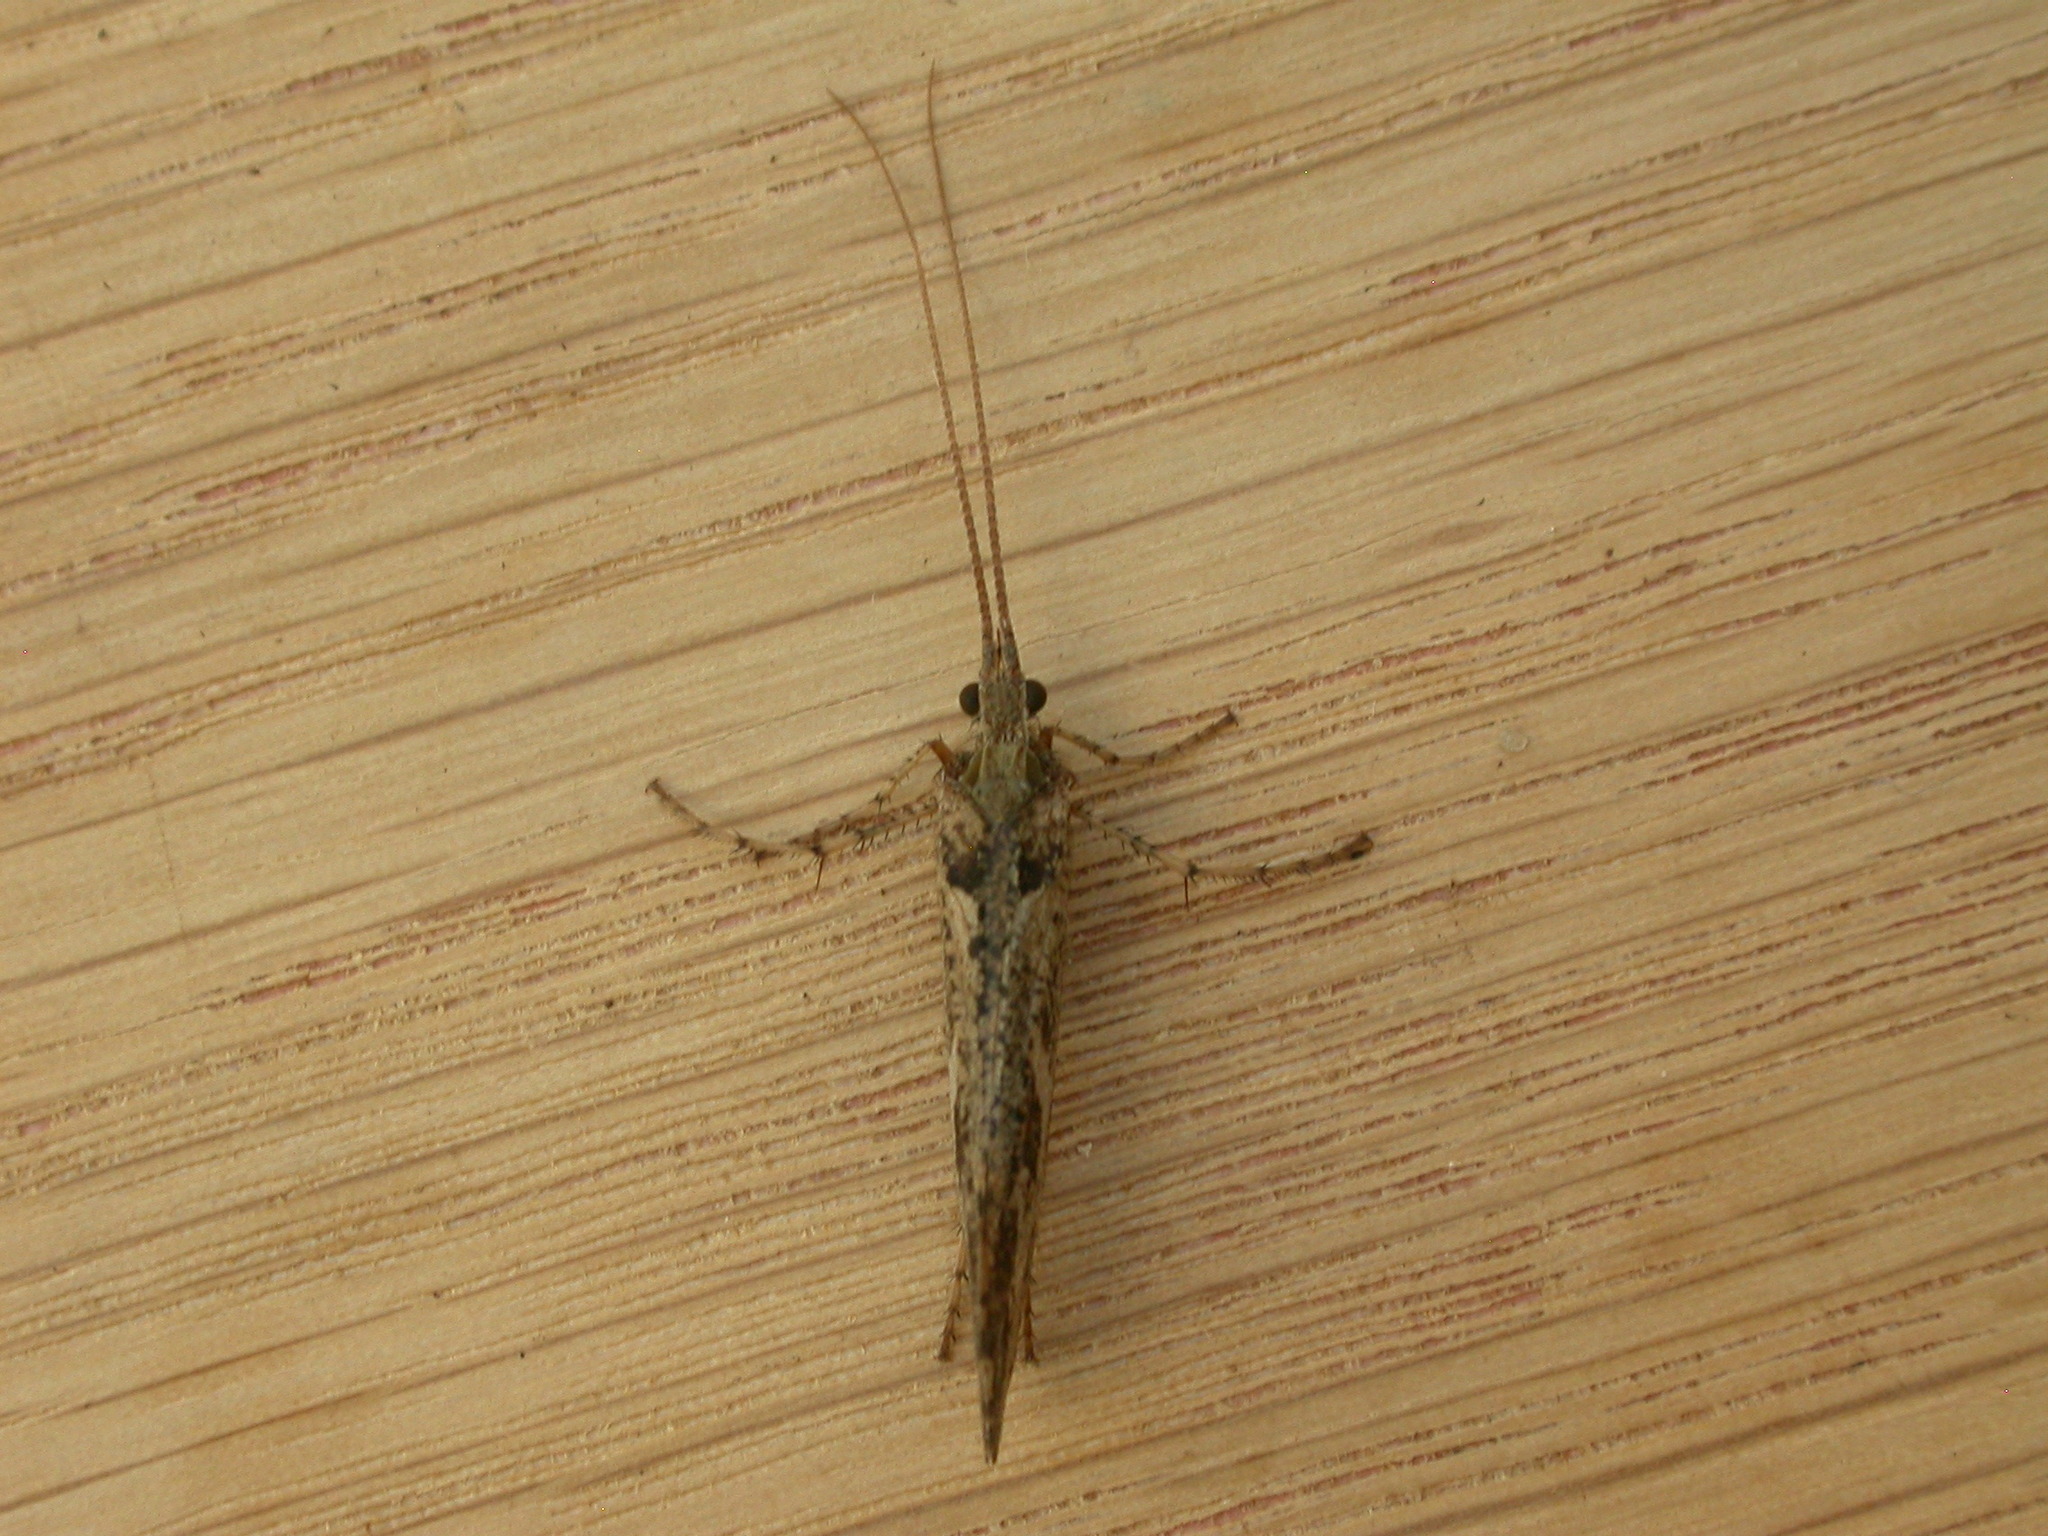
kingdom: Animalia
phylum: Arthropoda
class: Insecta
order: Trichoptera
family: Limnephilidae
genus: Glyphotaelius
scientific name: Glyphotaelius pellucidus
